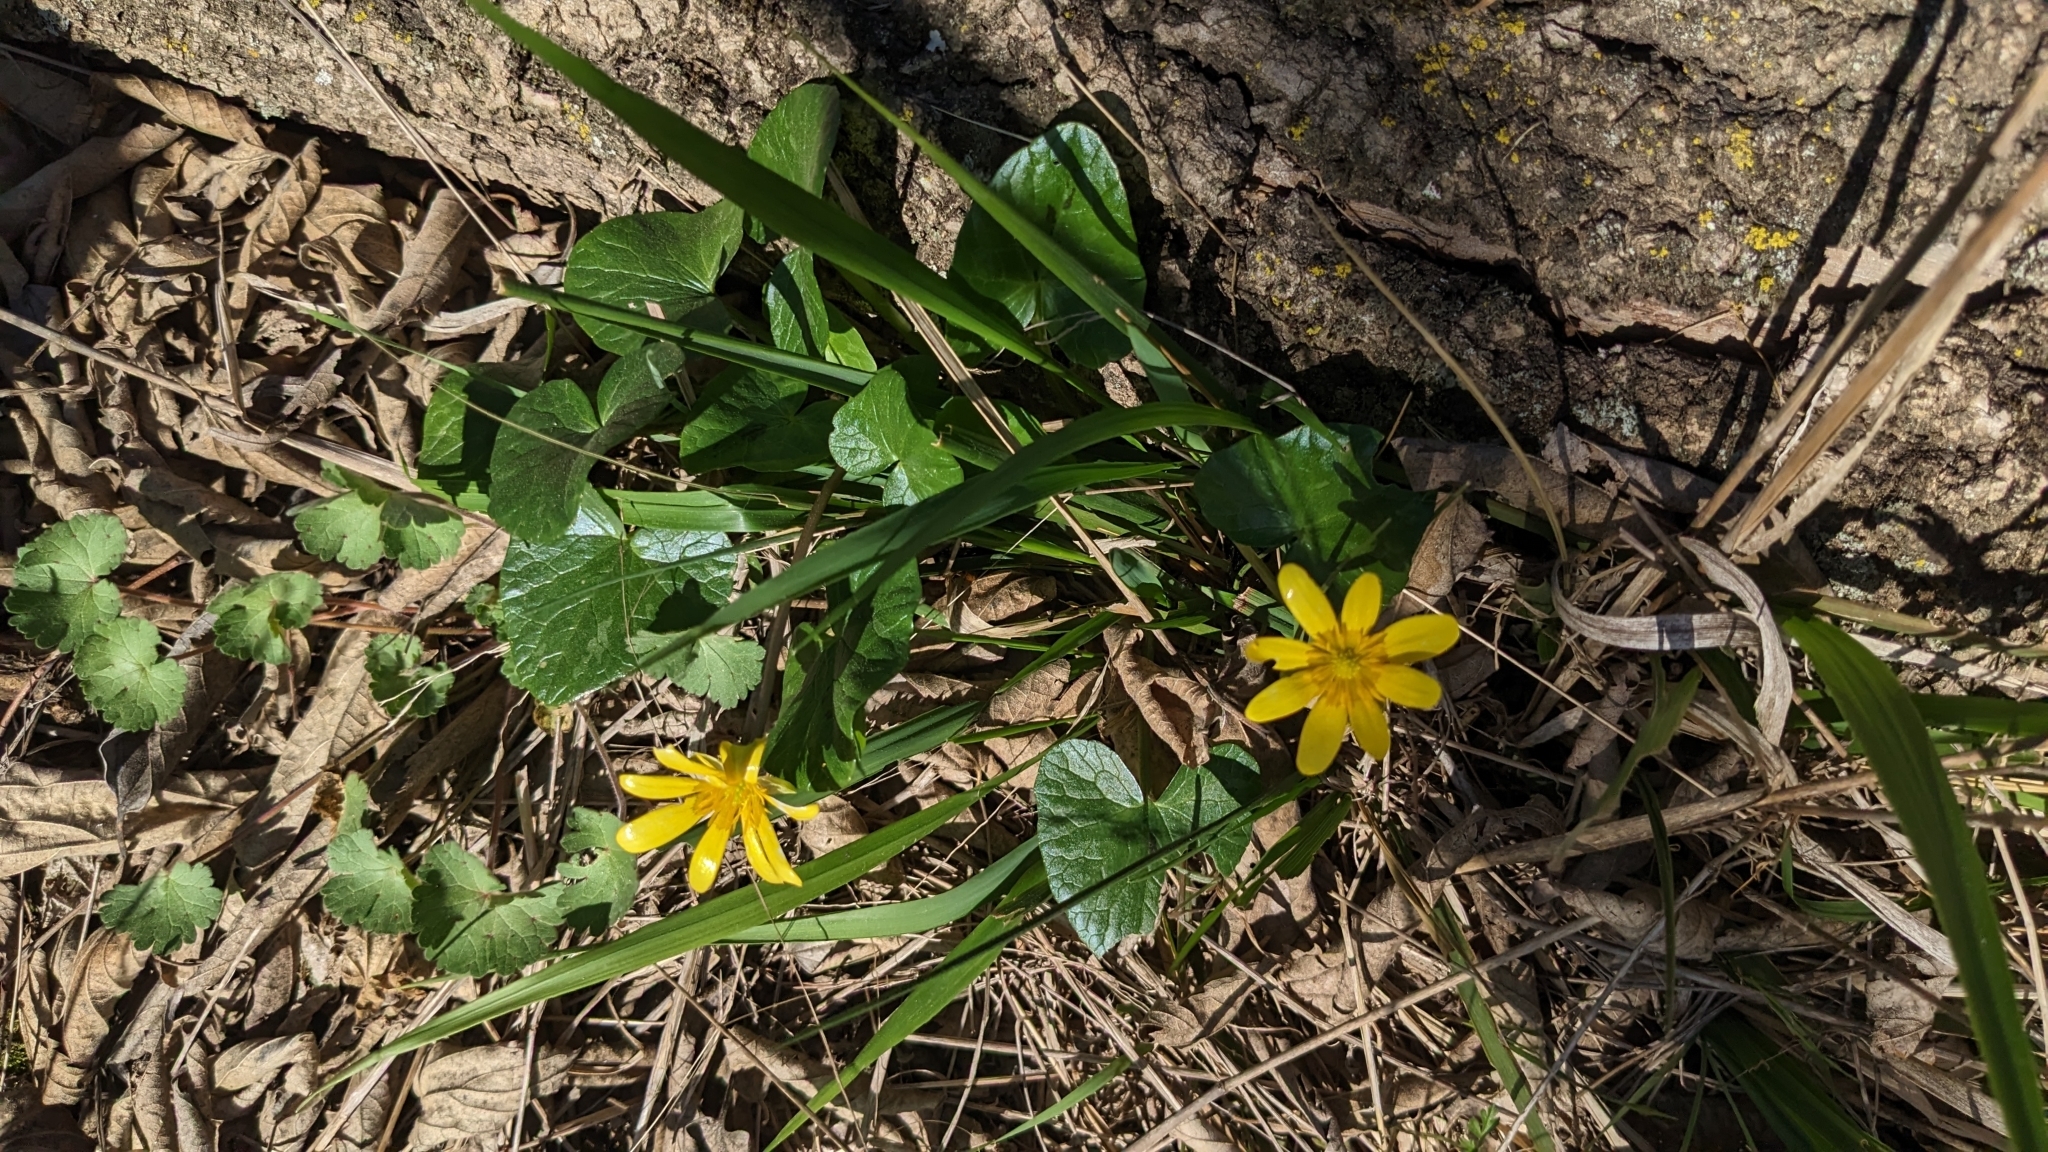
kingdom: Plantae
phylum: Tracheophyta
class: Magnoliopsida
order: Ranunculales
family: Ranunculaceae
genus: Ficaria
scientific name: Ficaria verna
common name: Lesser celandine
